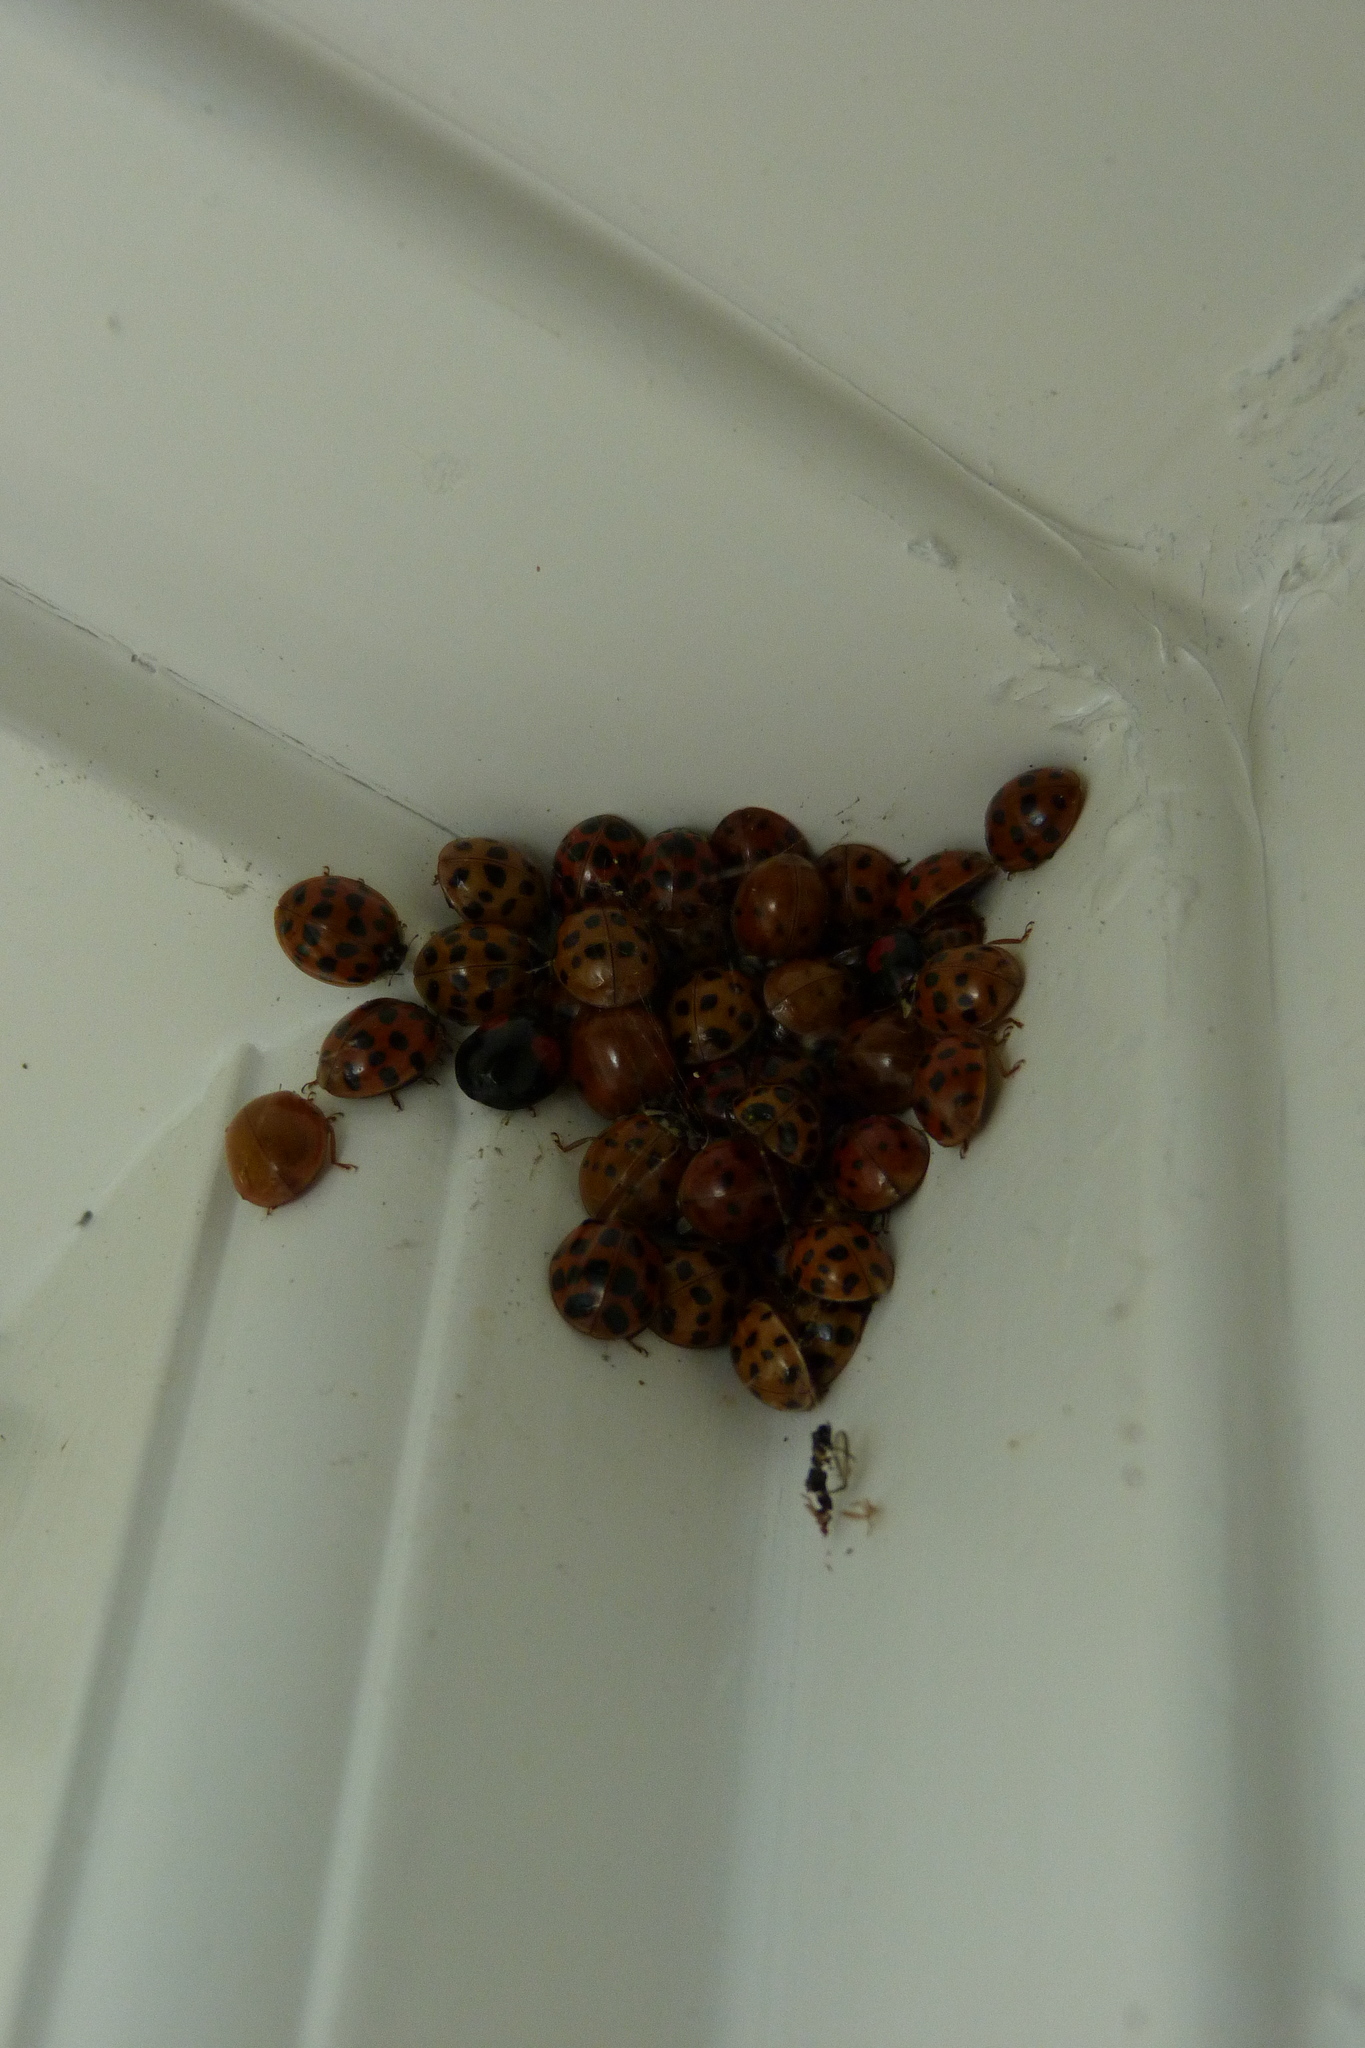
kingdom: Animalia
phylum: Arthropoda
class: Insecta
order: Coleoptera
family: Coccinellidae
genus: Harmonia
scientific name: Harmonia axyridis
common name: Harlequin ladybird
